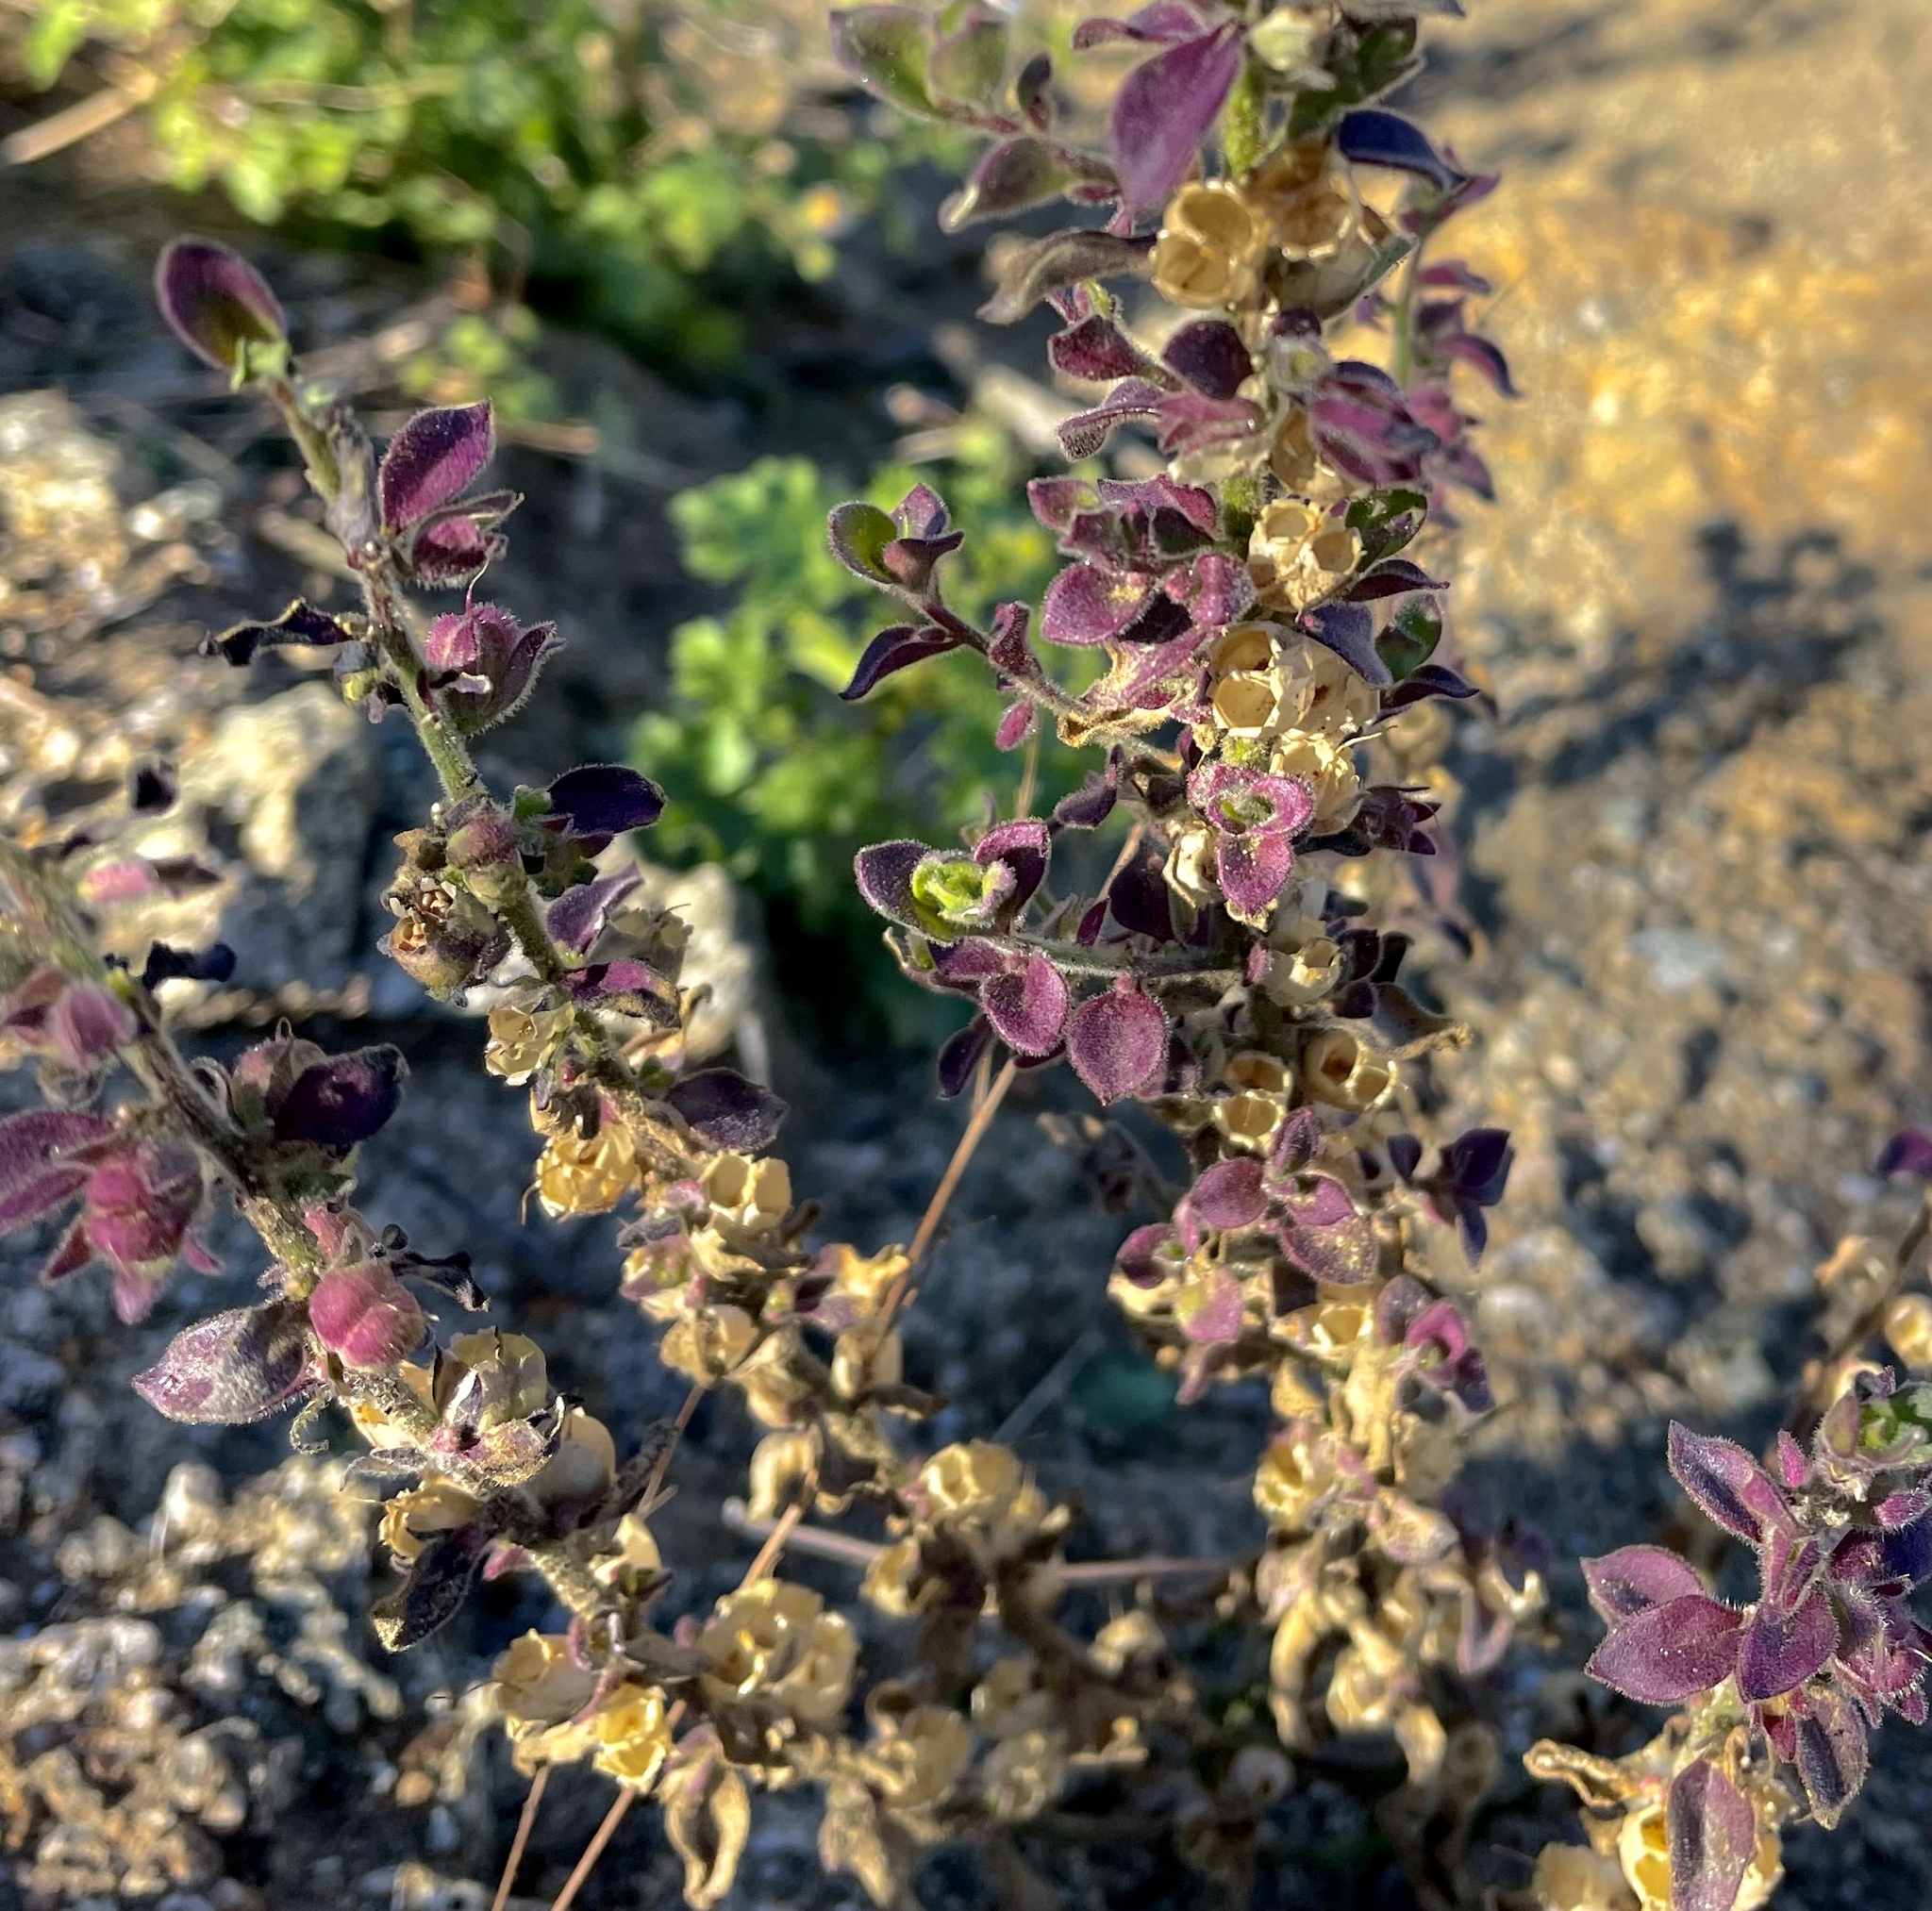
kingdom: Plantae
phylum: Tracheophyta
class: Magnoliopsida
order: Lamiales
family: Plantaginaceae
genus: Pseudorontium
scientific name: Pseudorontium cyathiferum
